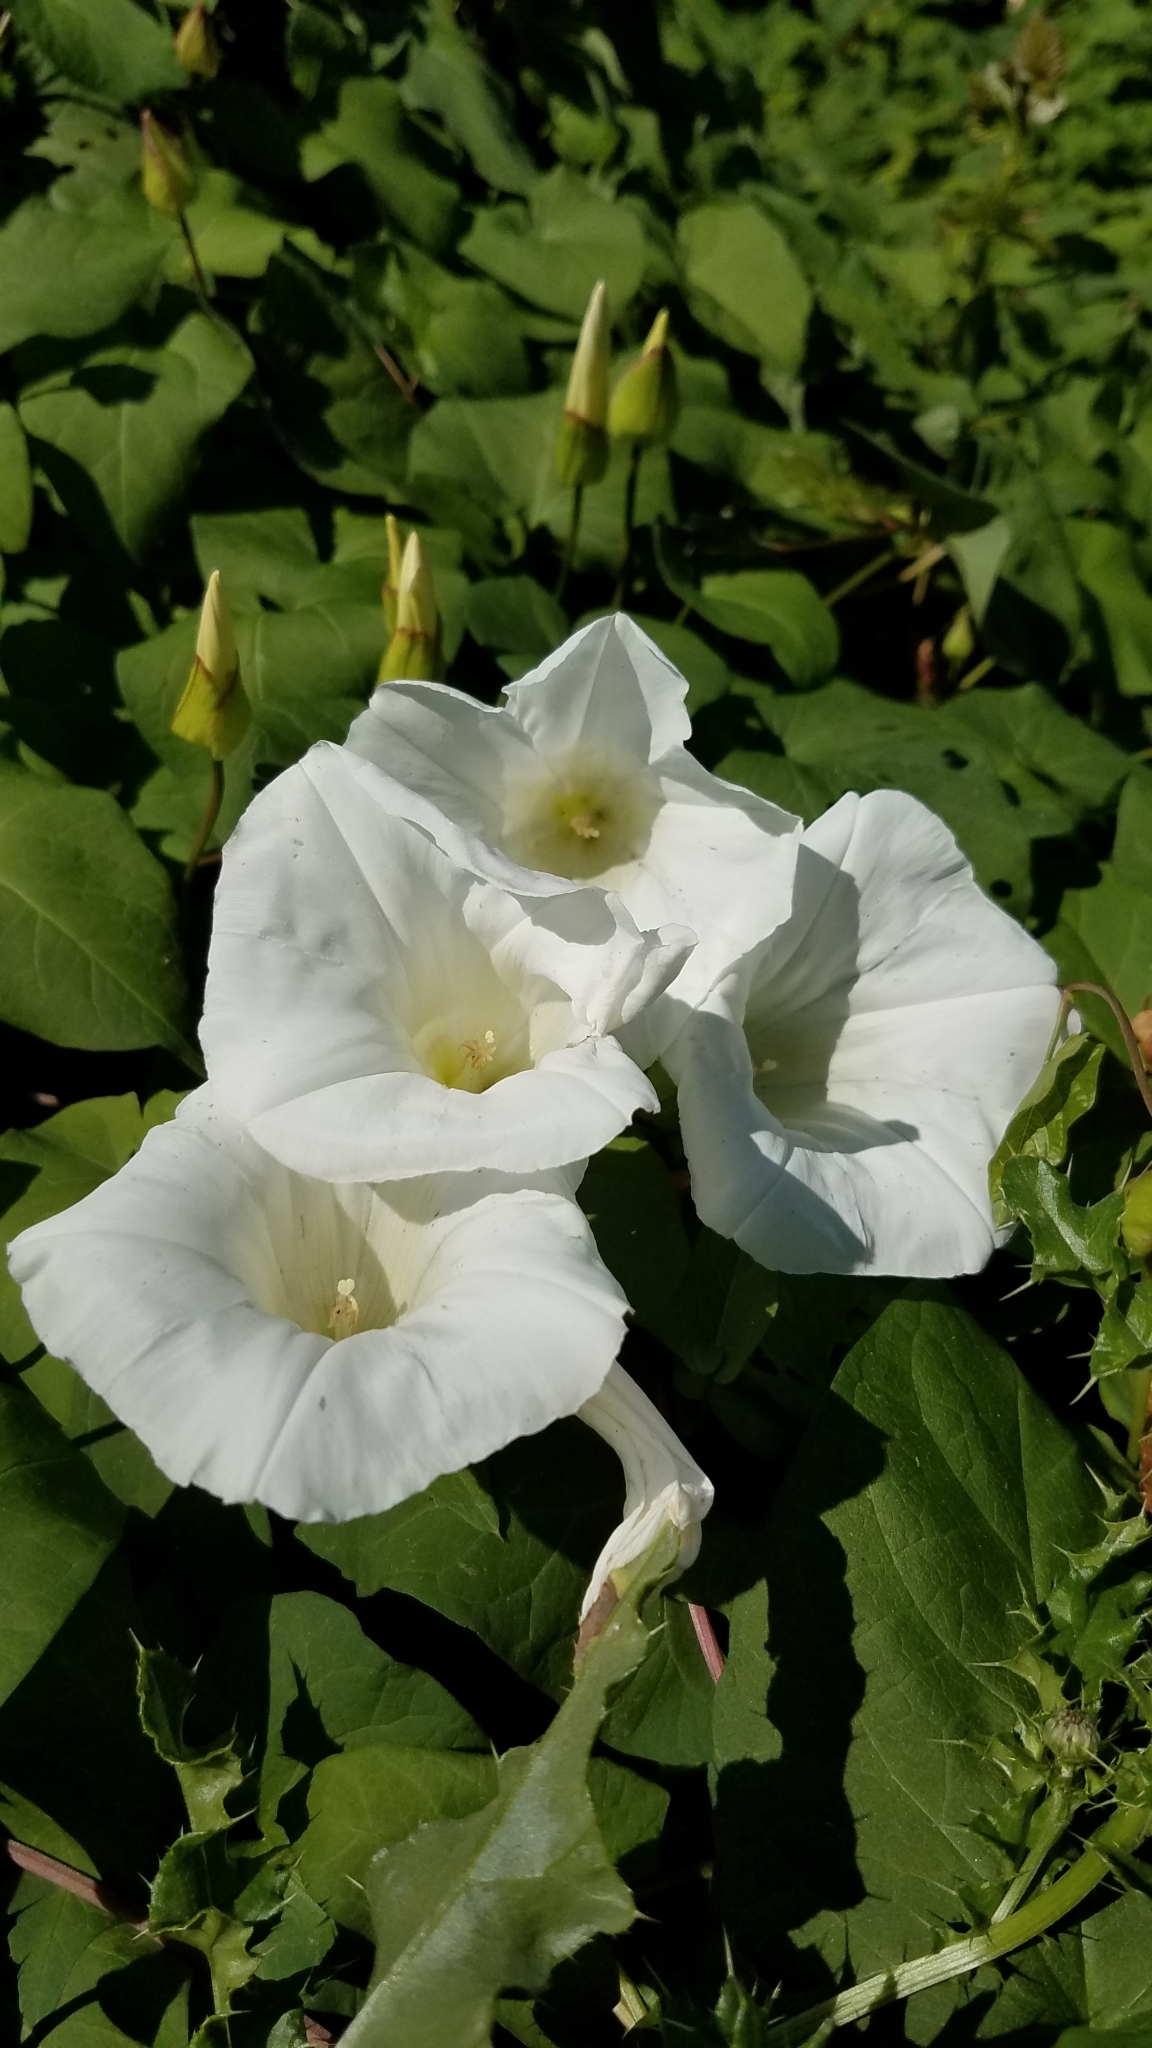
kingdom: Plantae
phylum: Tracheophyta
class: Magnoliopsida
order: Solanales
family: Convolvulaceae
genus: Calystegia
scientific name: Calystegia silvatica
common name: Large bindweed
